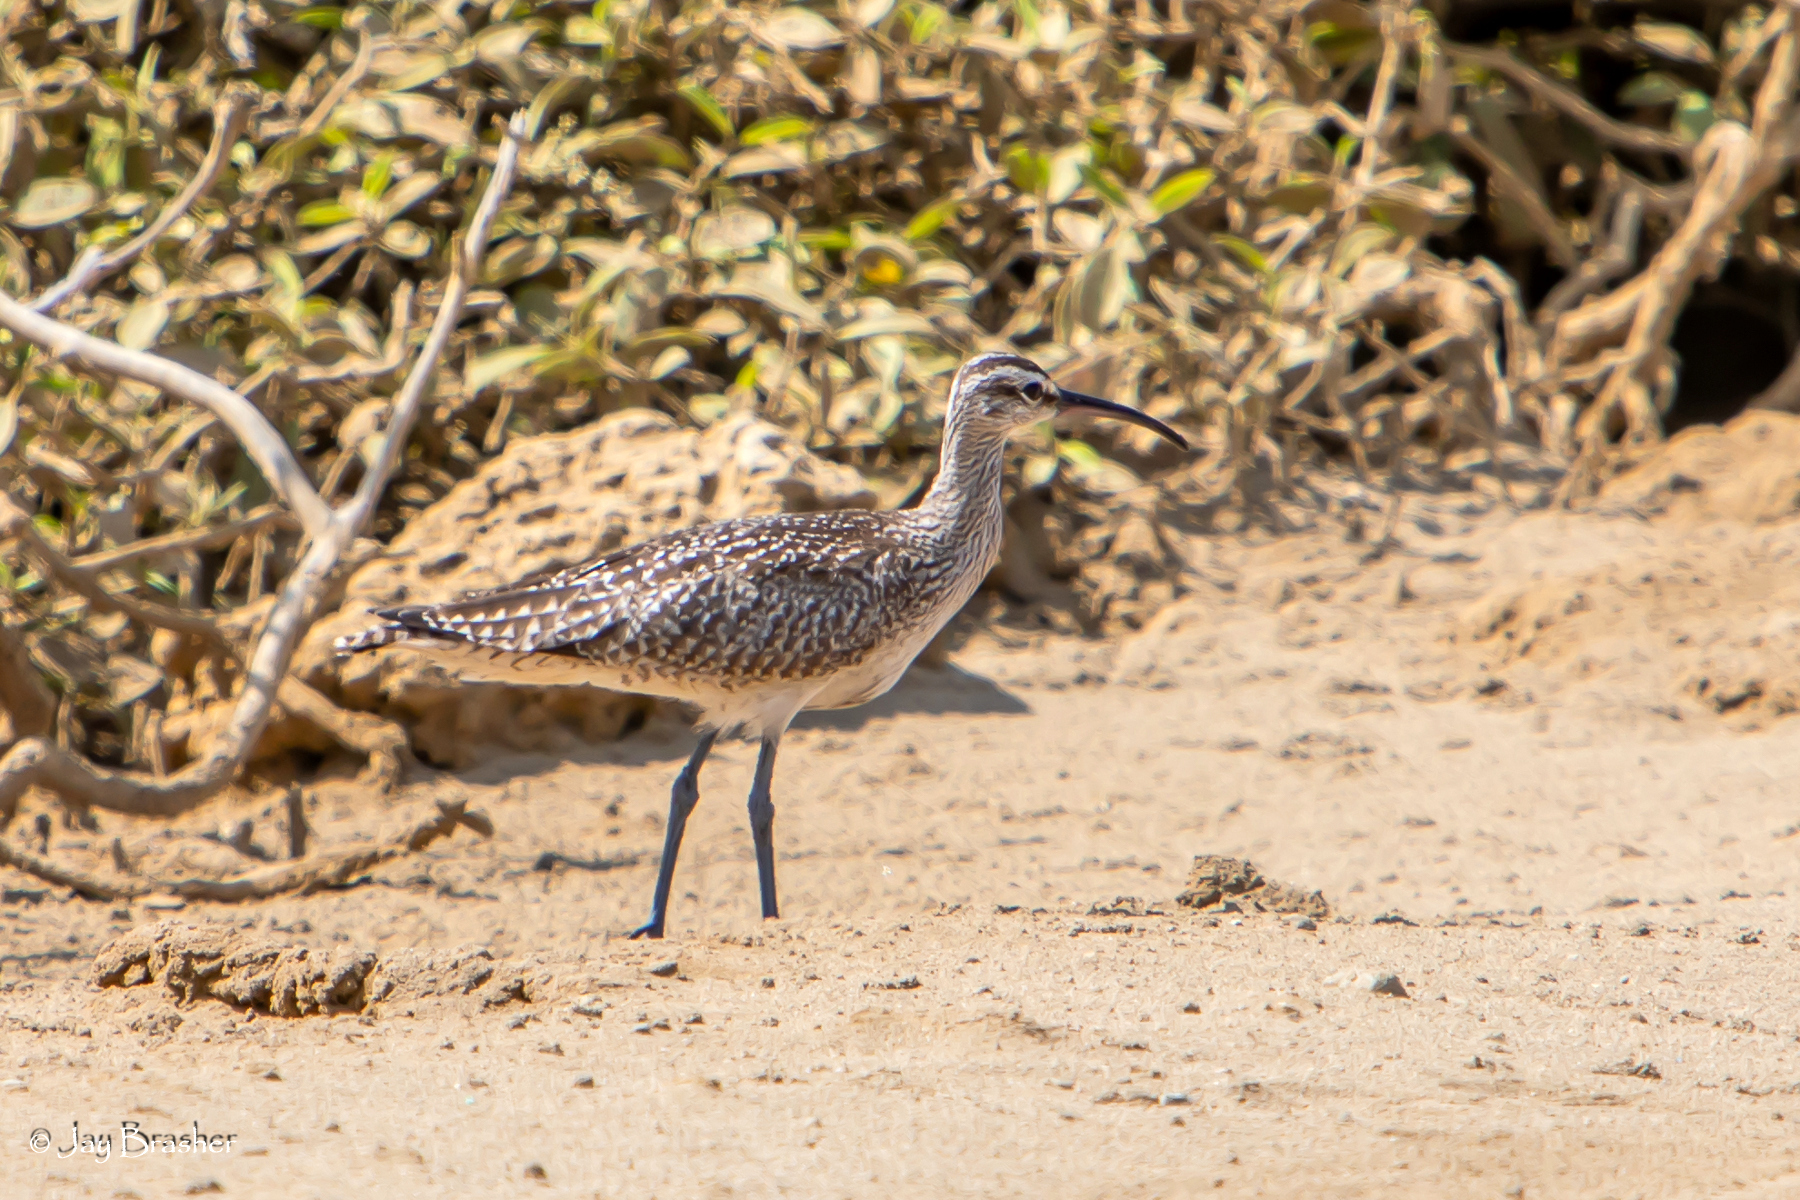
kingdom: Animalia
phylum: Chordata
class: Aves
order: Charadriiformes
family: Scolopacidae
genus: Numenius
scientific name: Numenius phaeopus
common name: Whimbrel
